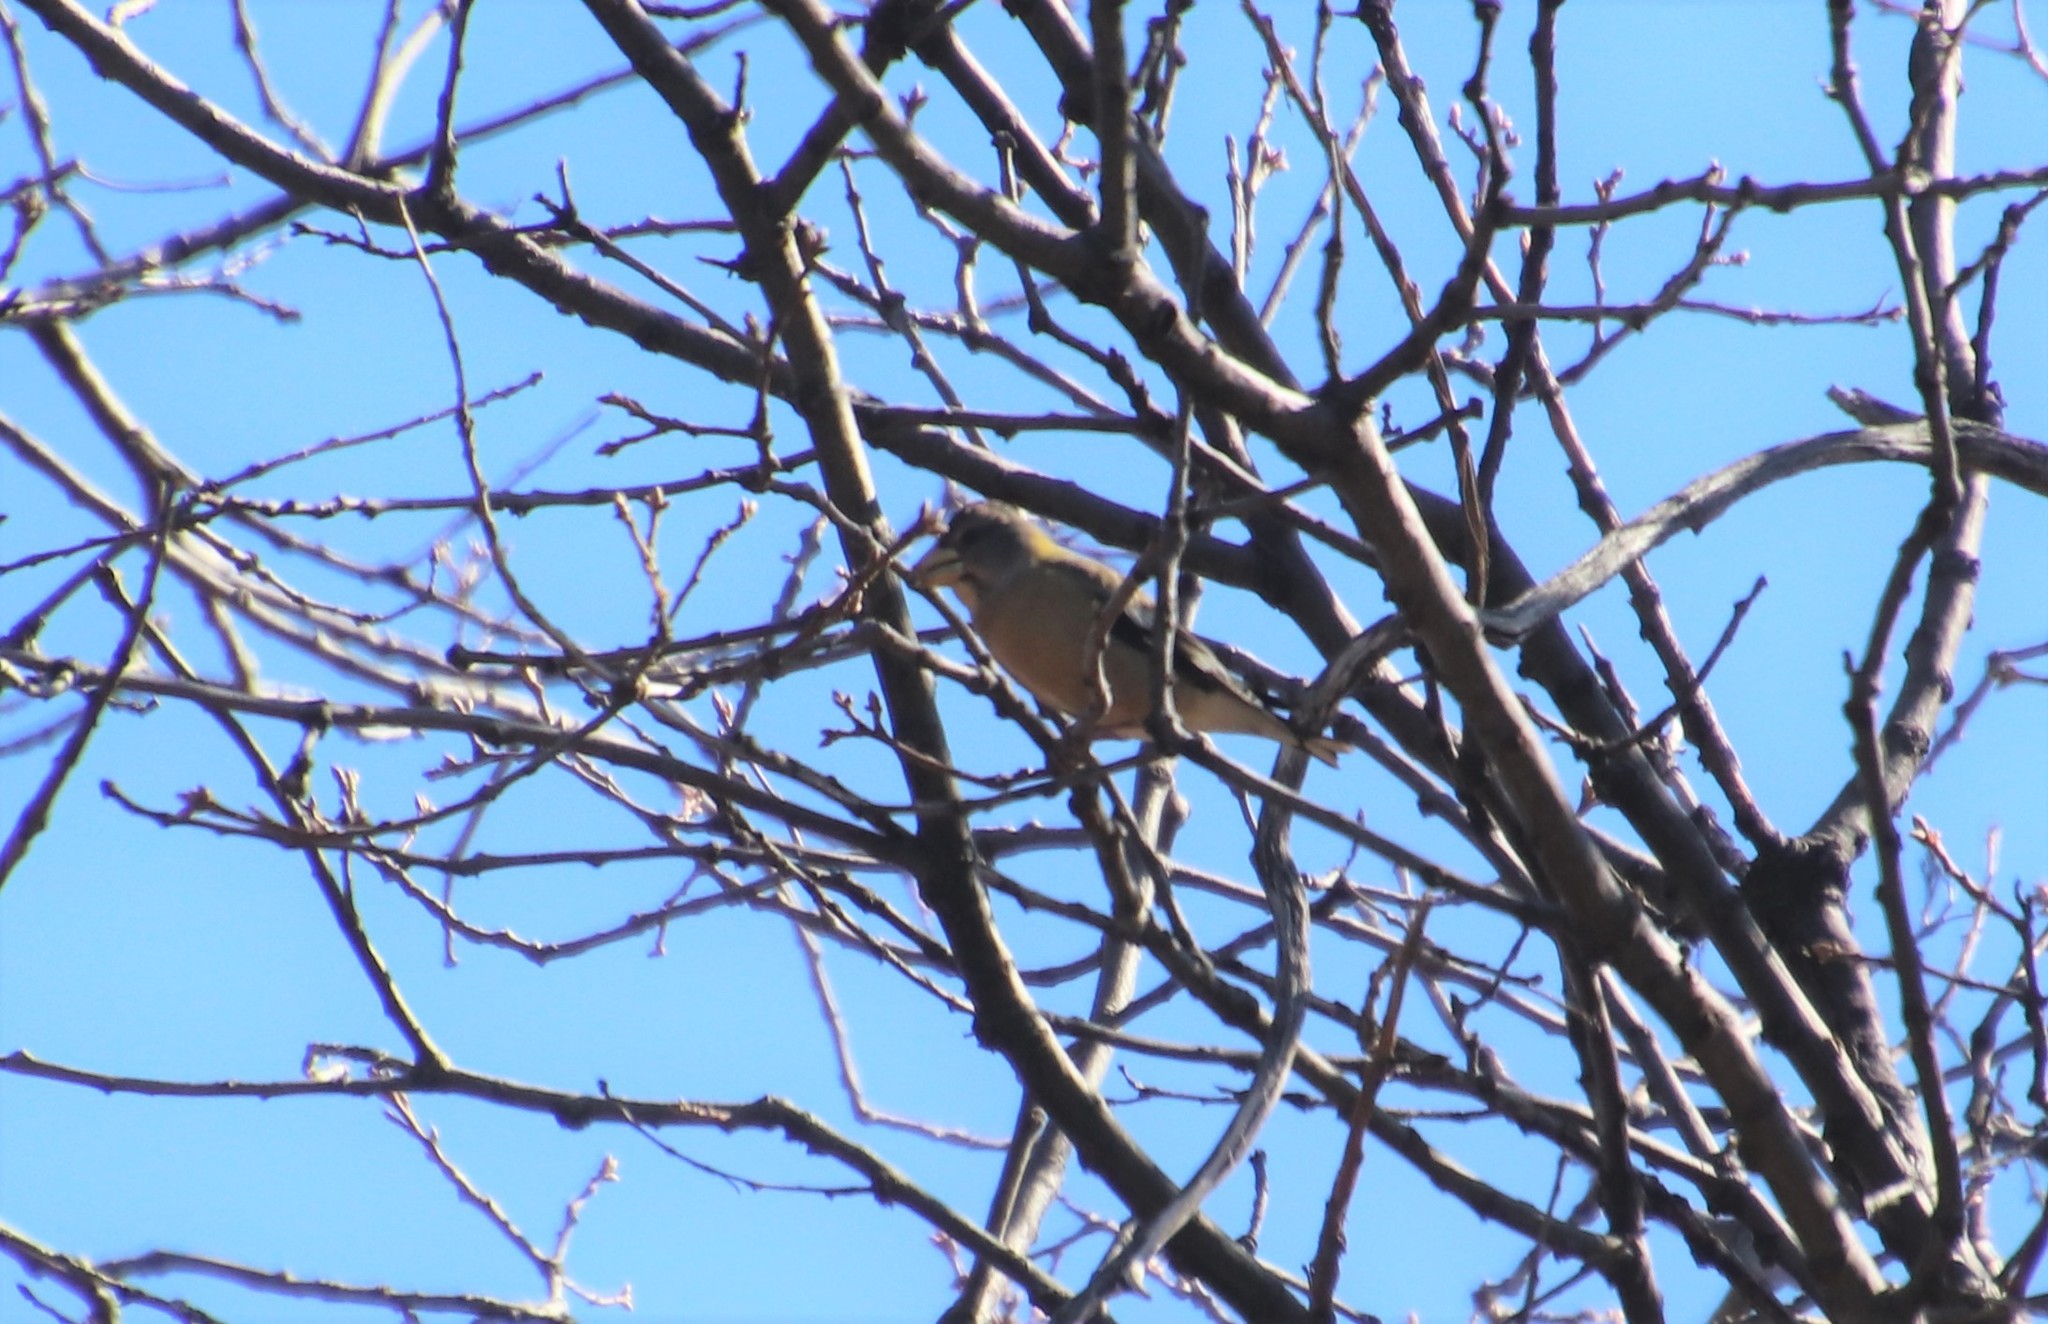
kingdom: Animalia
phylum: Chordata
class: Aves
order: Passeriformes
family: Fringillidae
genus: Hesperiphona
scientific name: Hesperiphona vespertina
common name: Evening grosbeak
